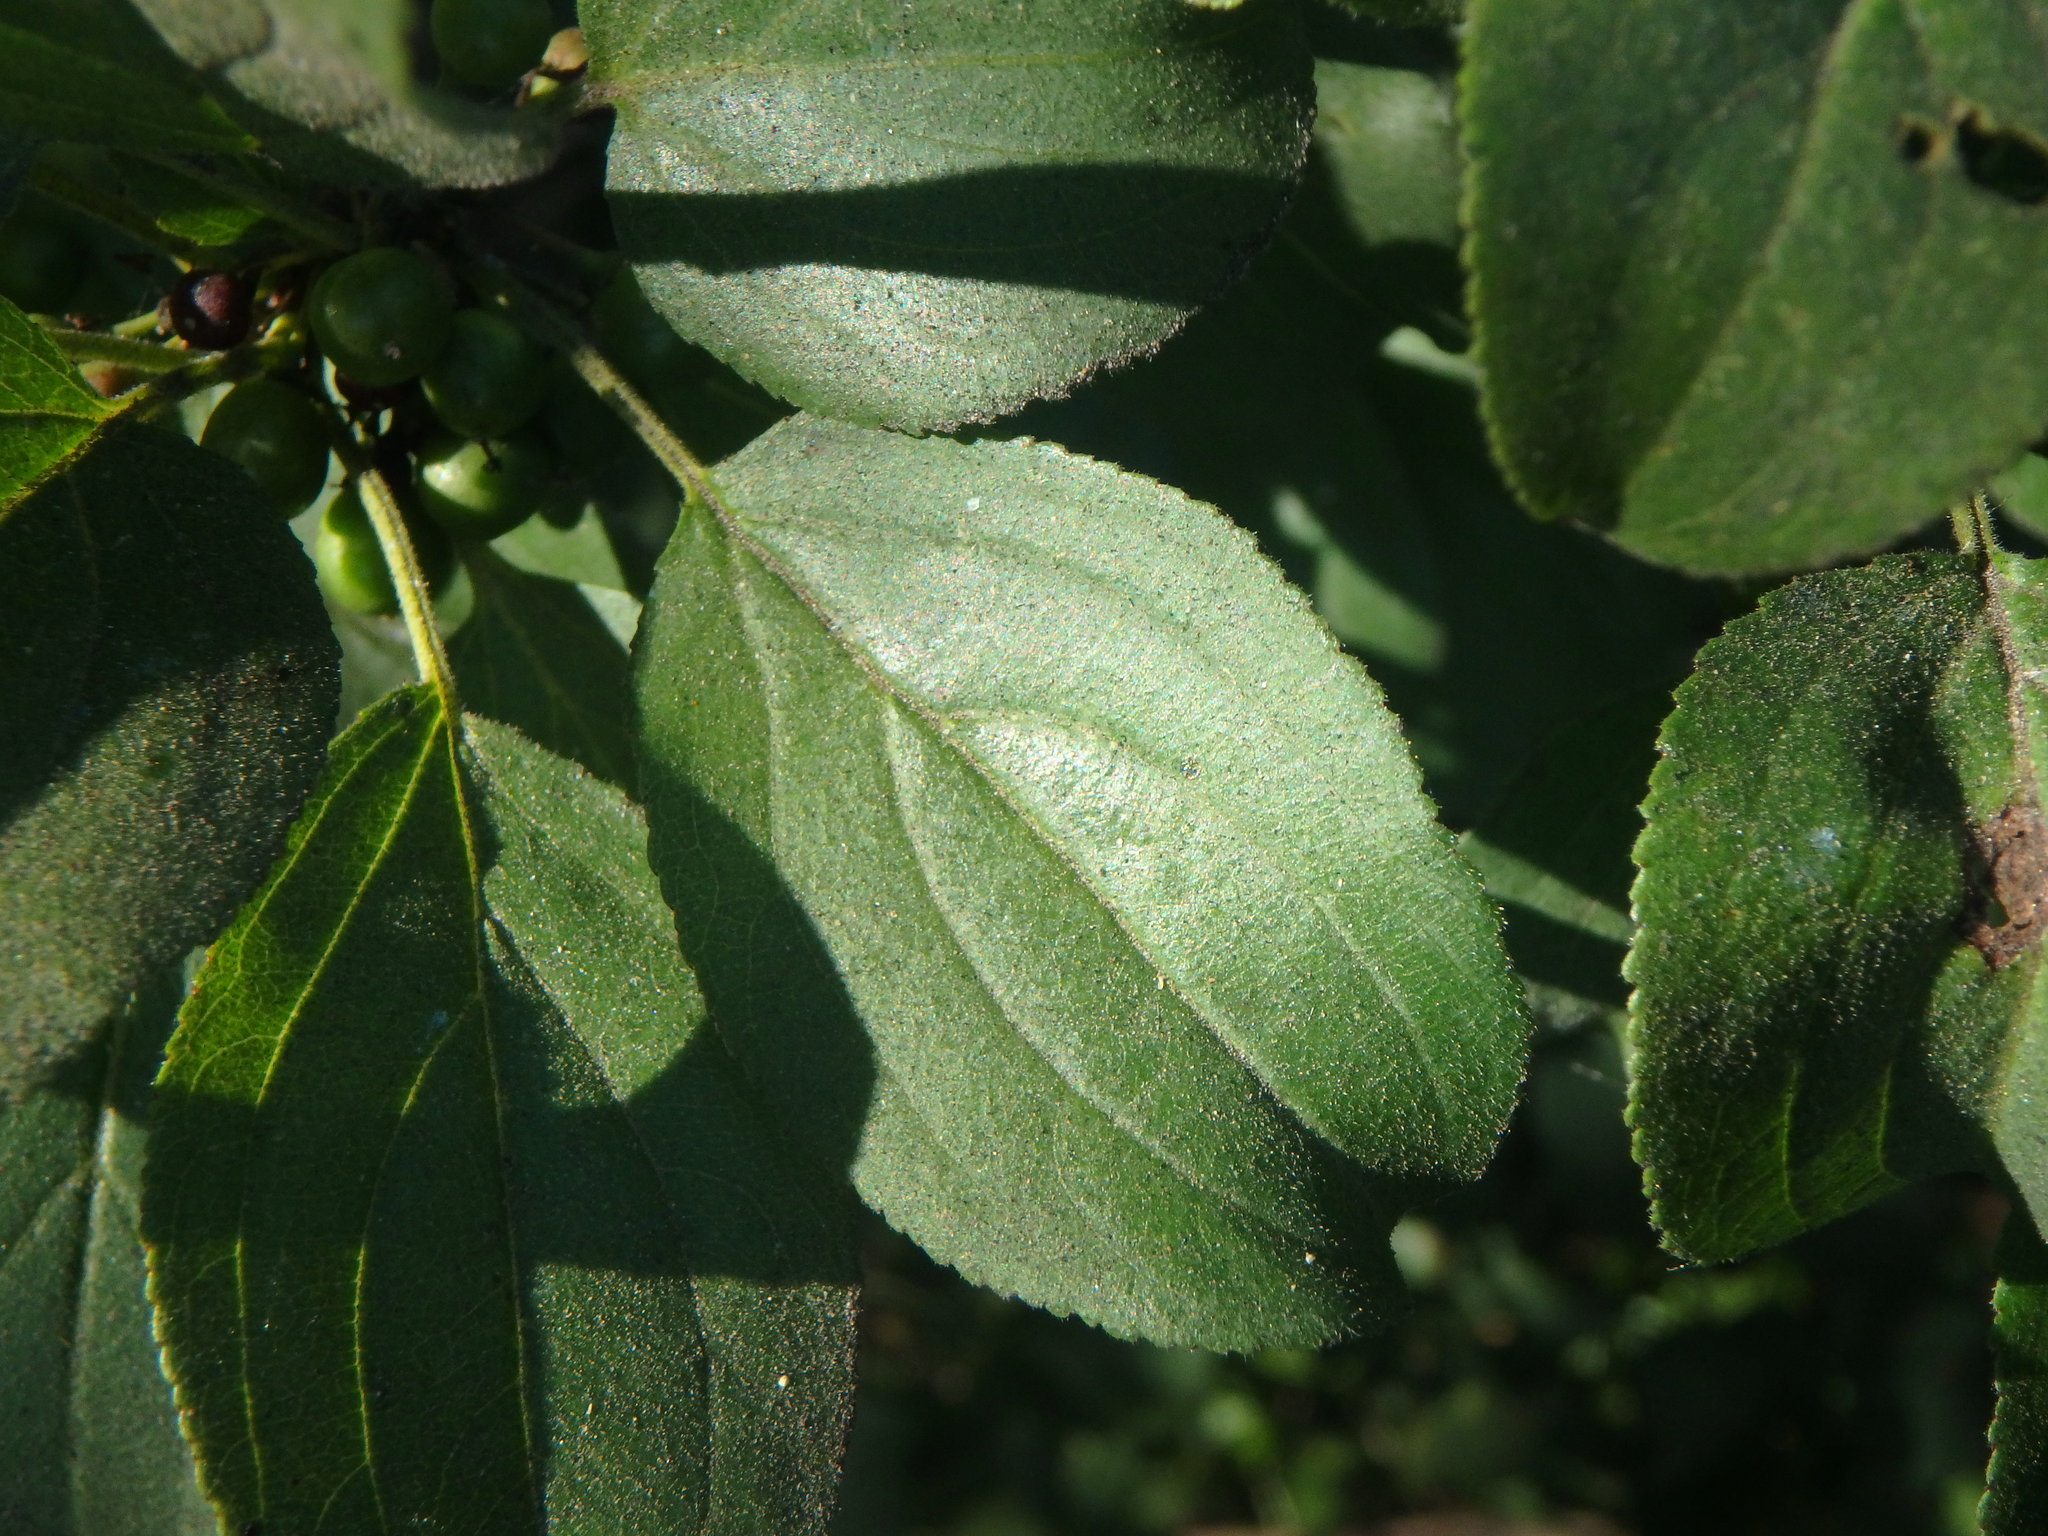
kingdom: Plantae
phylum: Tracheophyta
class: Magnoliopsida
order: Rosales
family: Rhamnaceae
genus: Rhamnus
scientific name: Rhamnus cathartica
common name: Common buckthorn
